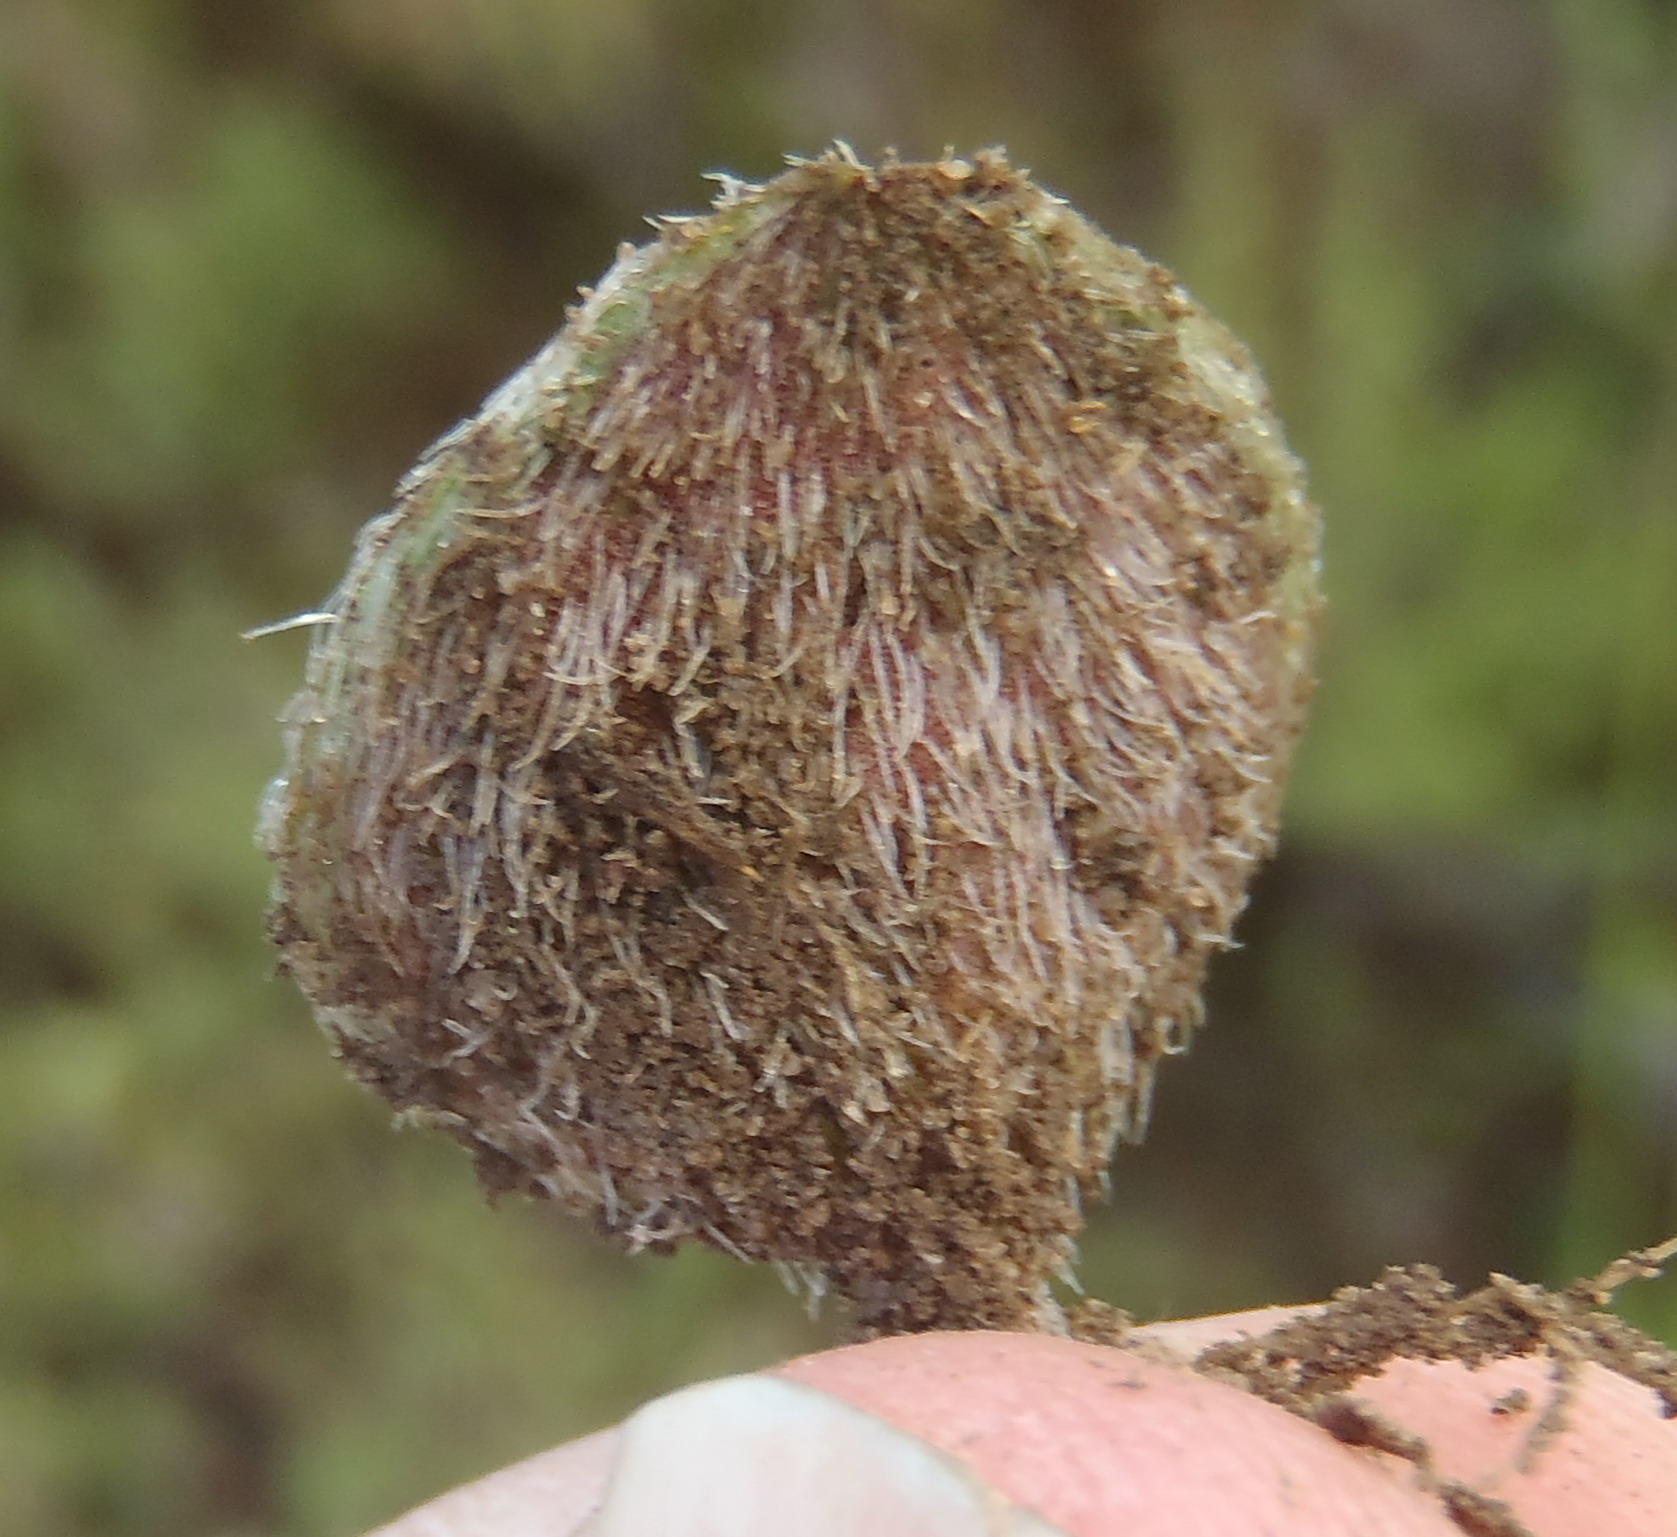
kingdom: Plantae
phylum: Tracheophyta
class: Liliopsida
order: Asparagales
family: Asparagaceae
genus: Eriospermum
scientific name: Eriospermum pubescens
